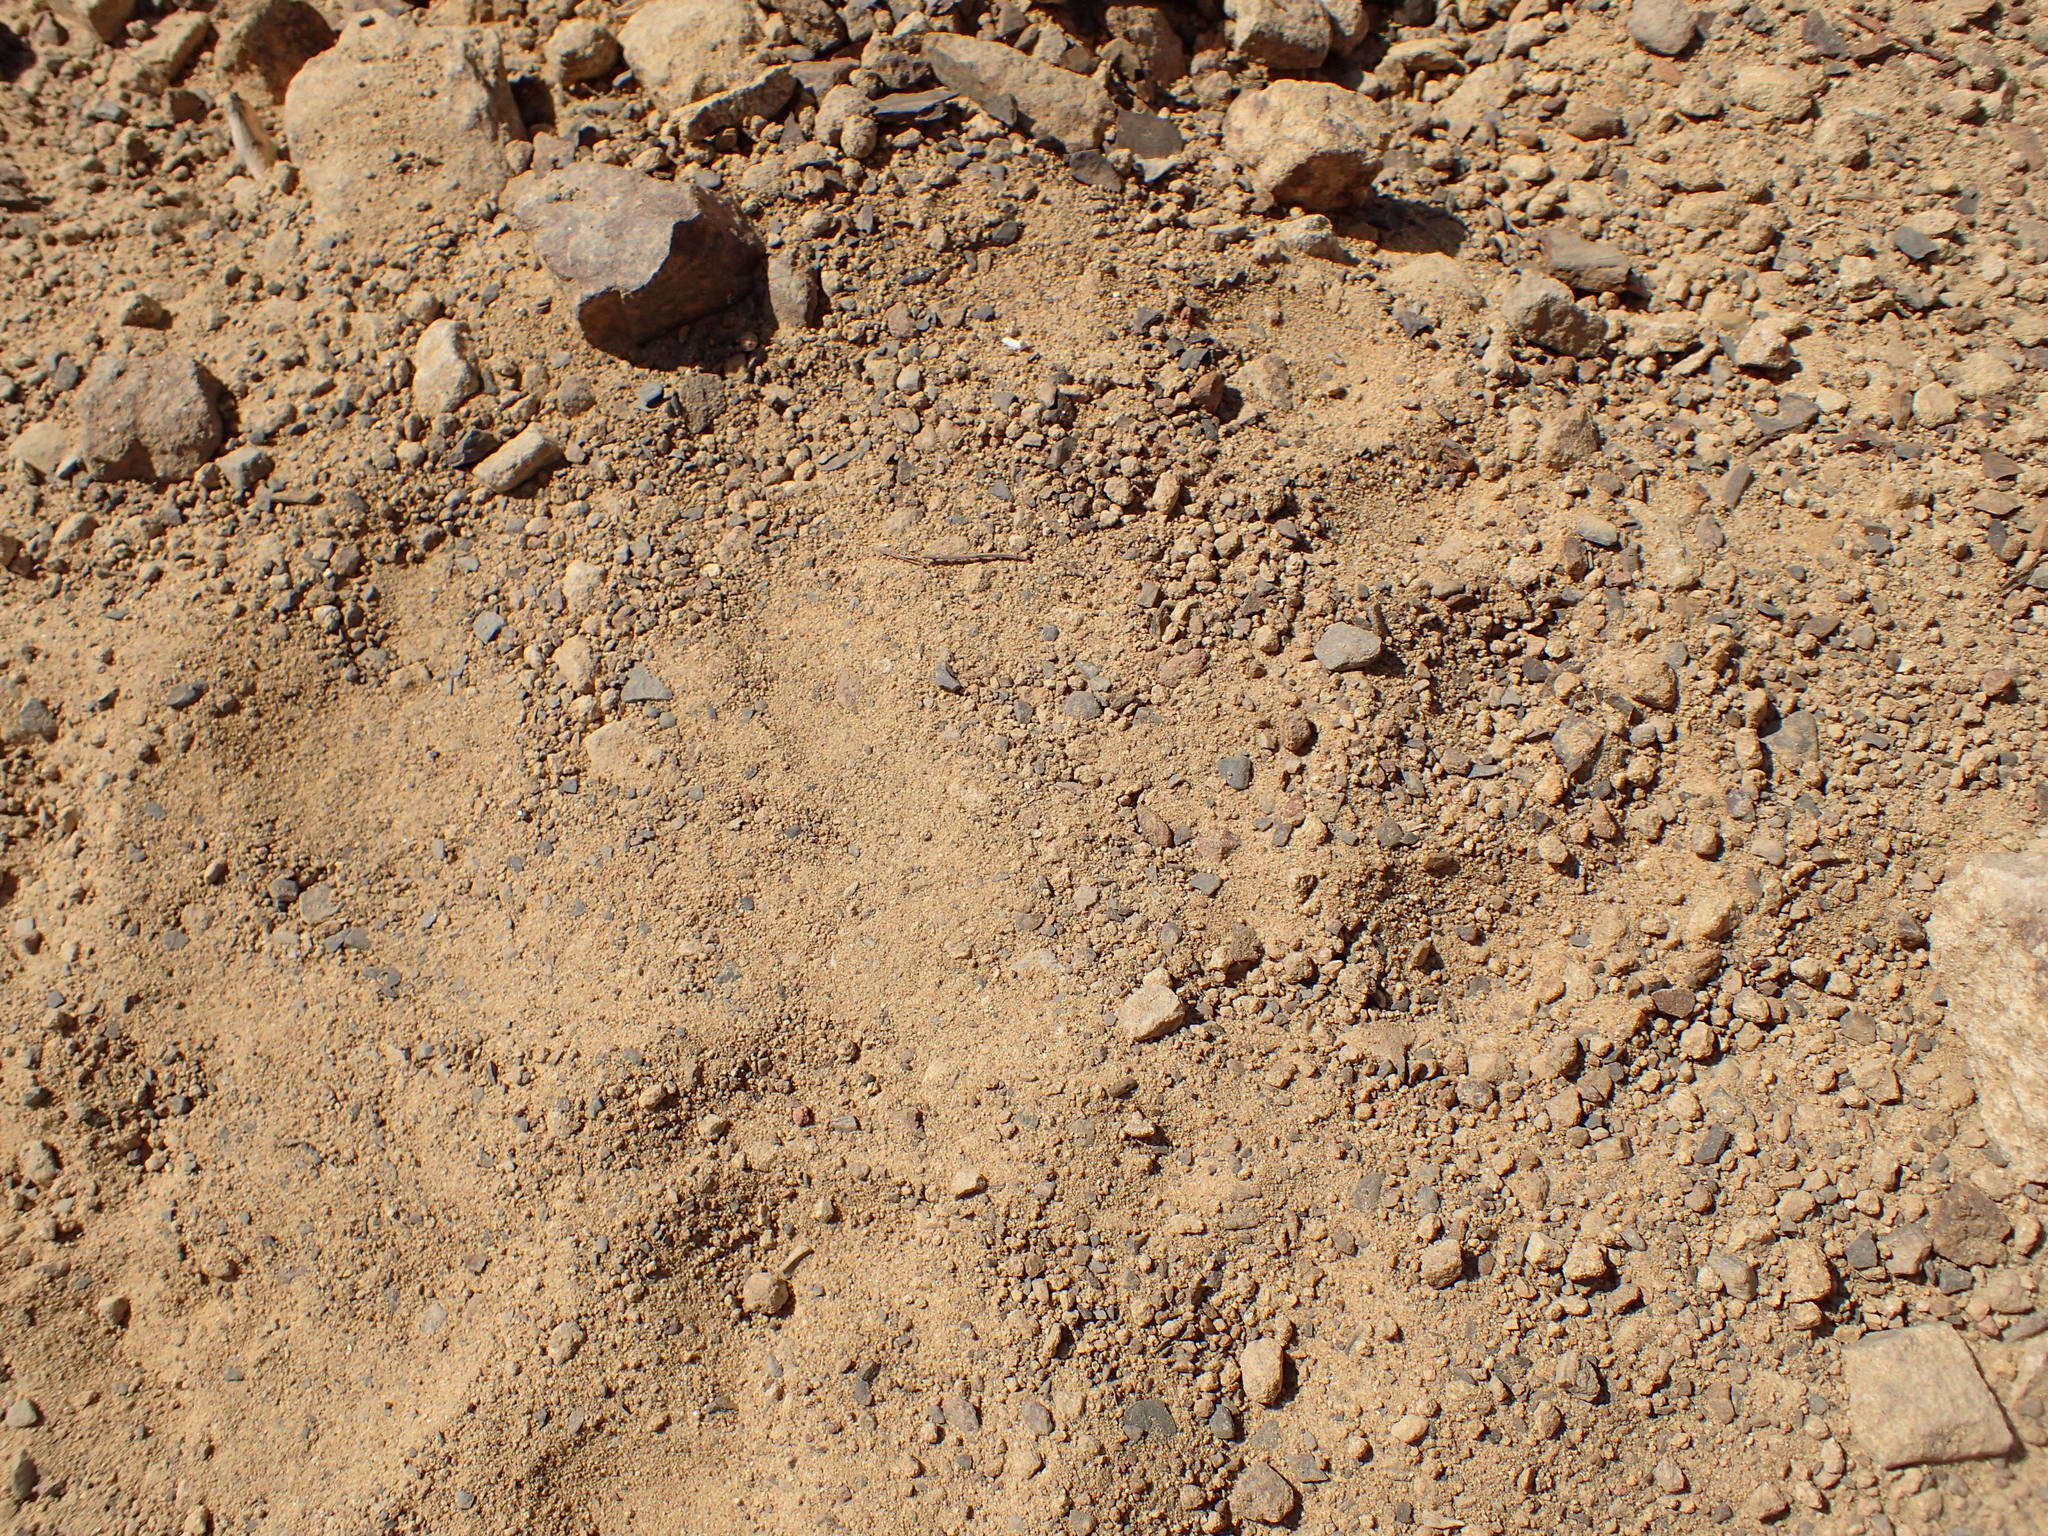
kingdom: Animalia
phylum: Chordata
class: Mammalia
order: Carnivora
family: Ursidae
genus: Ursus
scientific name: Ursus americanus
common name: American black bear
